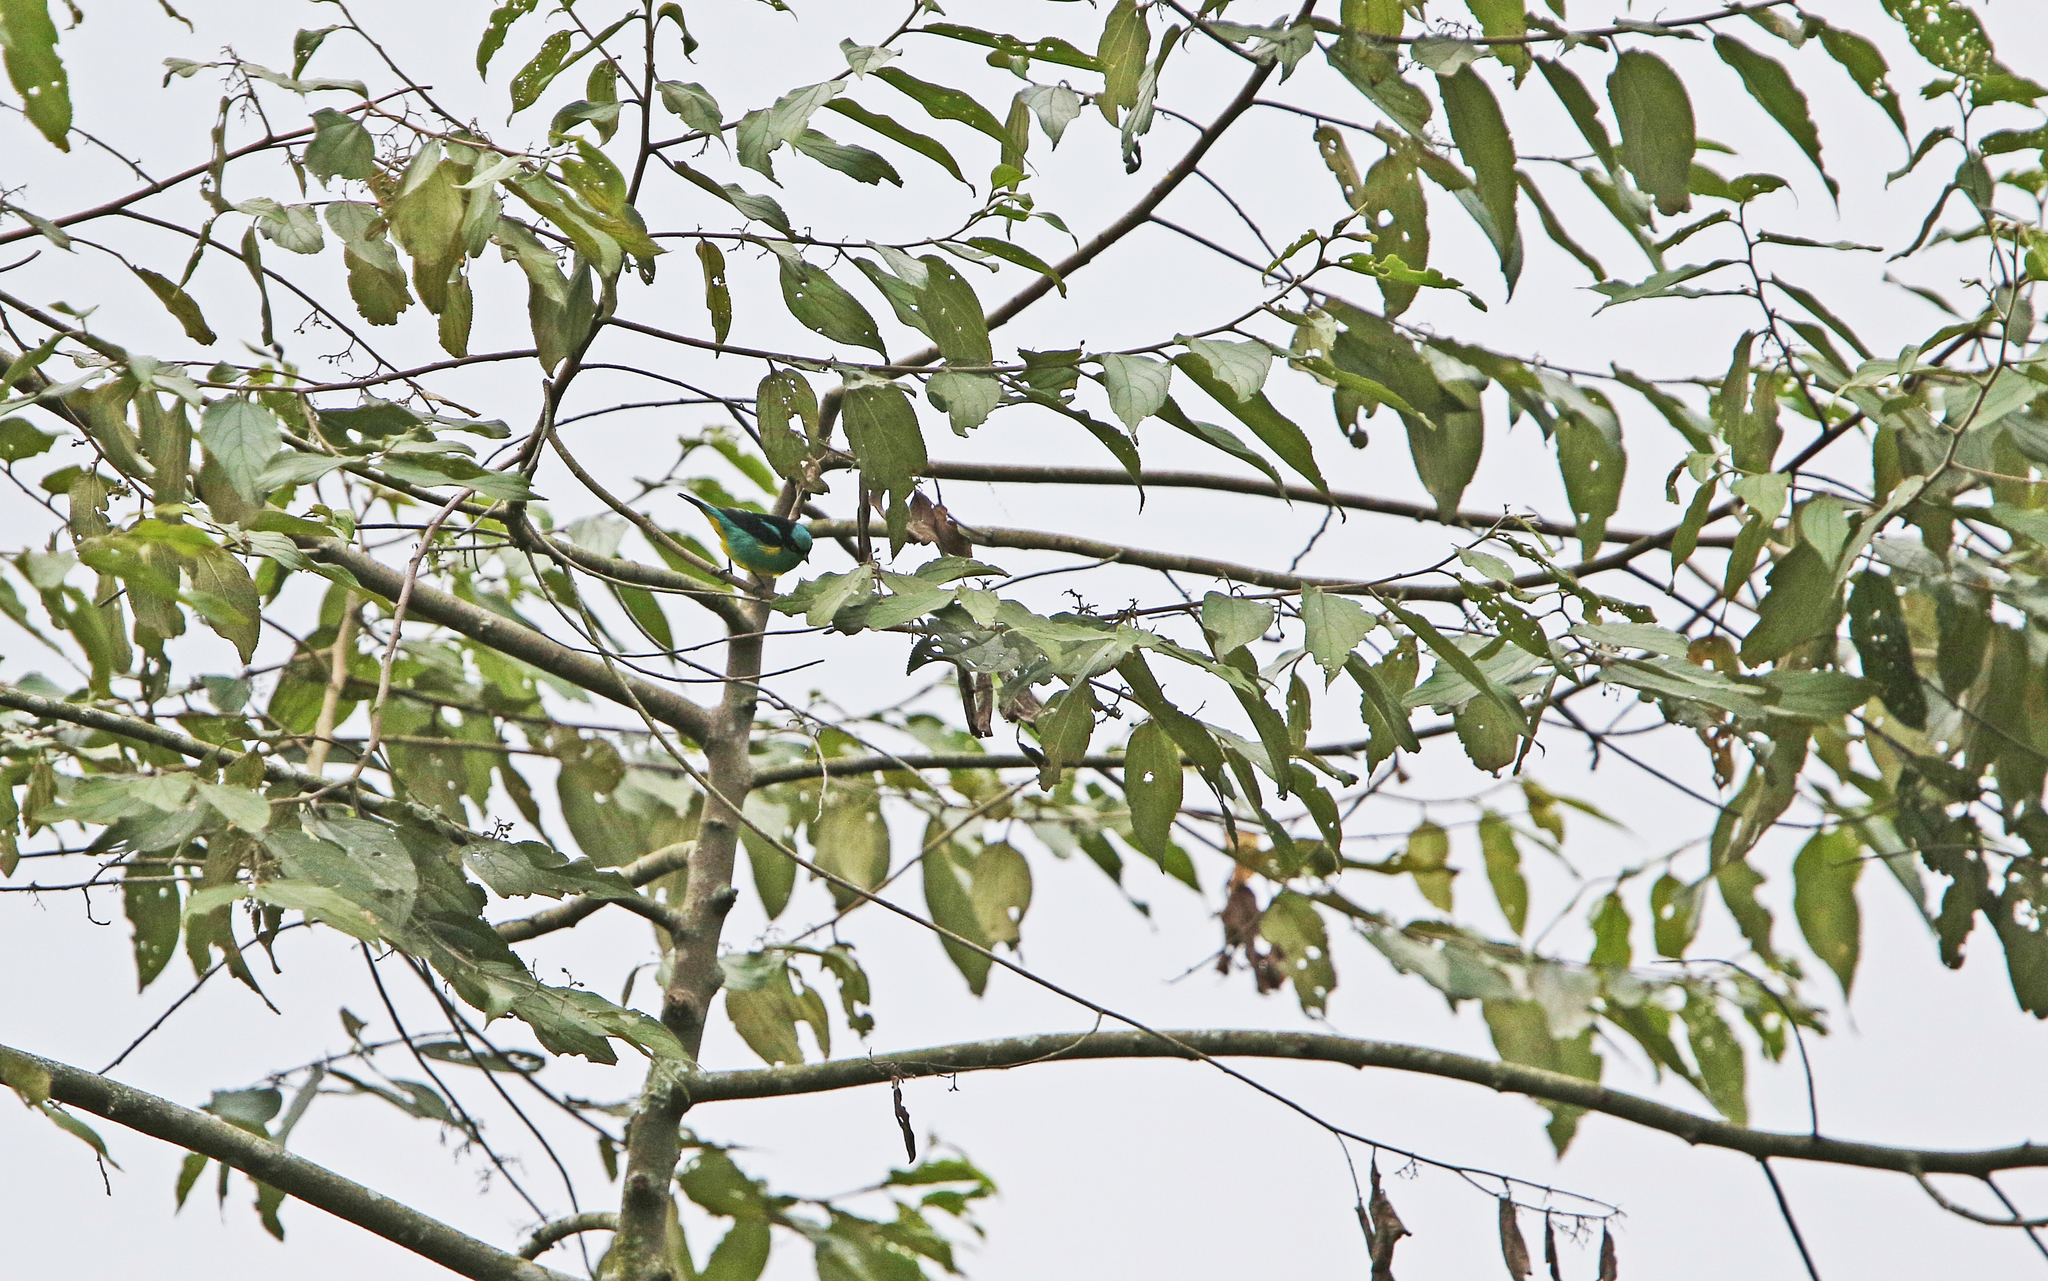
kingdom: Animalia
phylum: Chordata
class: Aves
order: Passeriformes
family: Thraupidae
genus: Dacnis
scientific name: Dacnis lineata
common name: Black-faced dacnis
